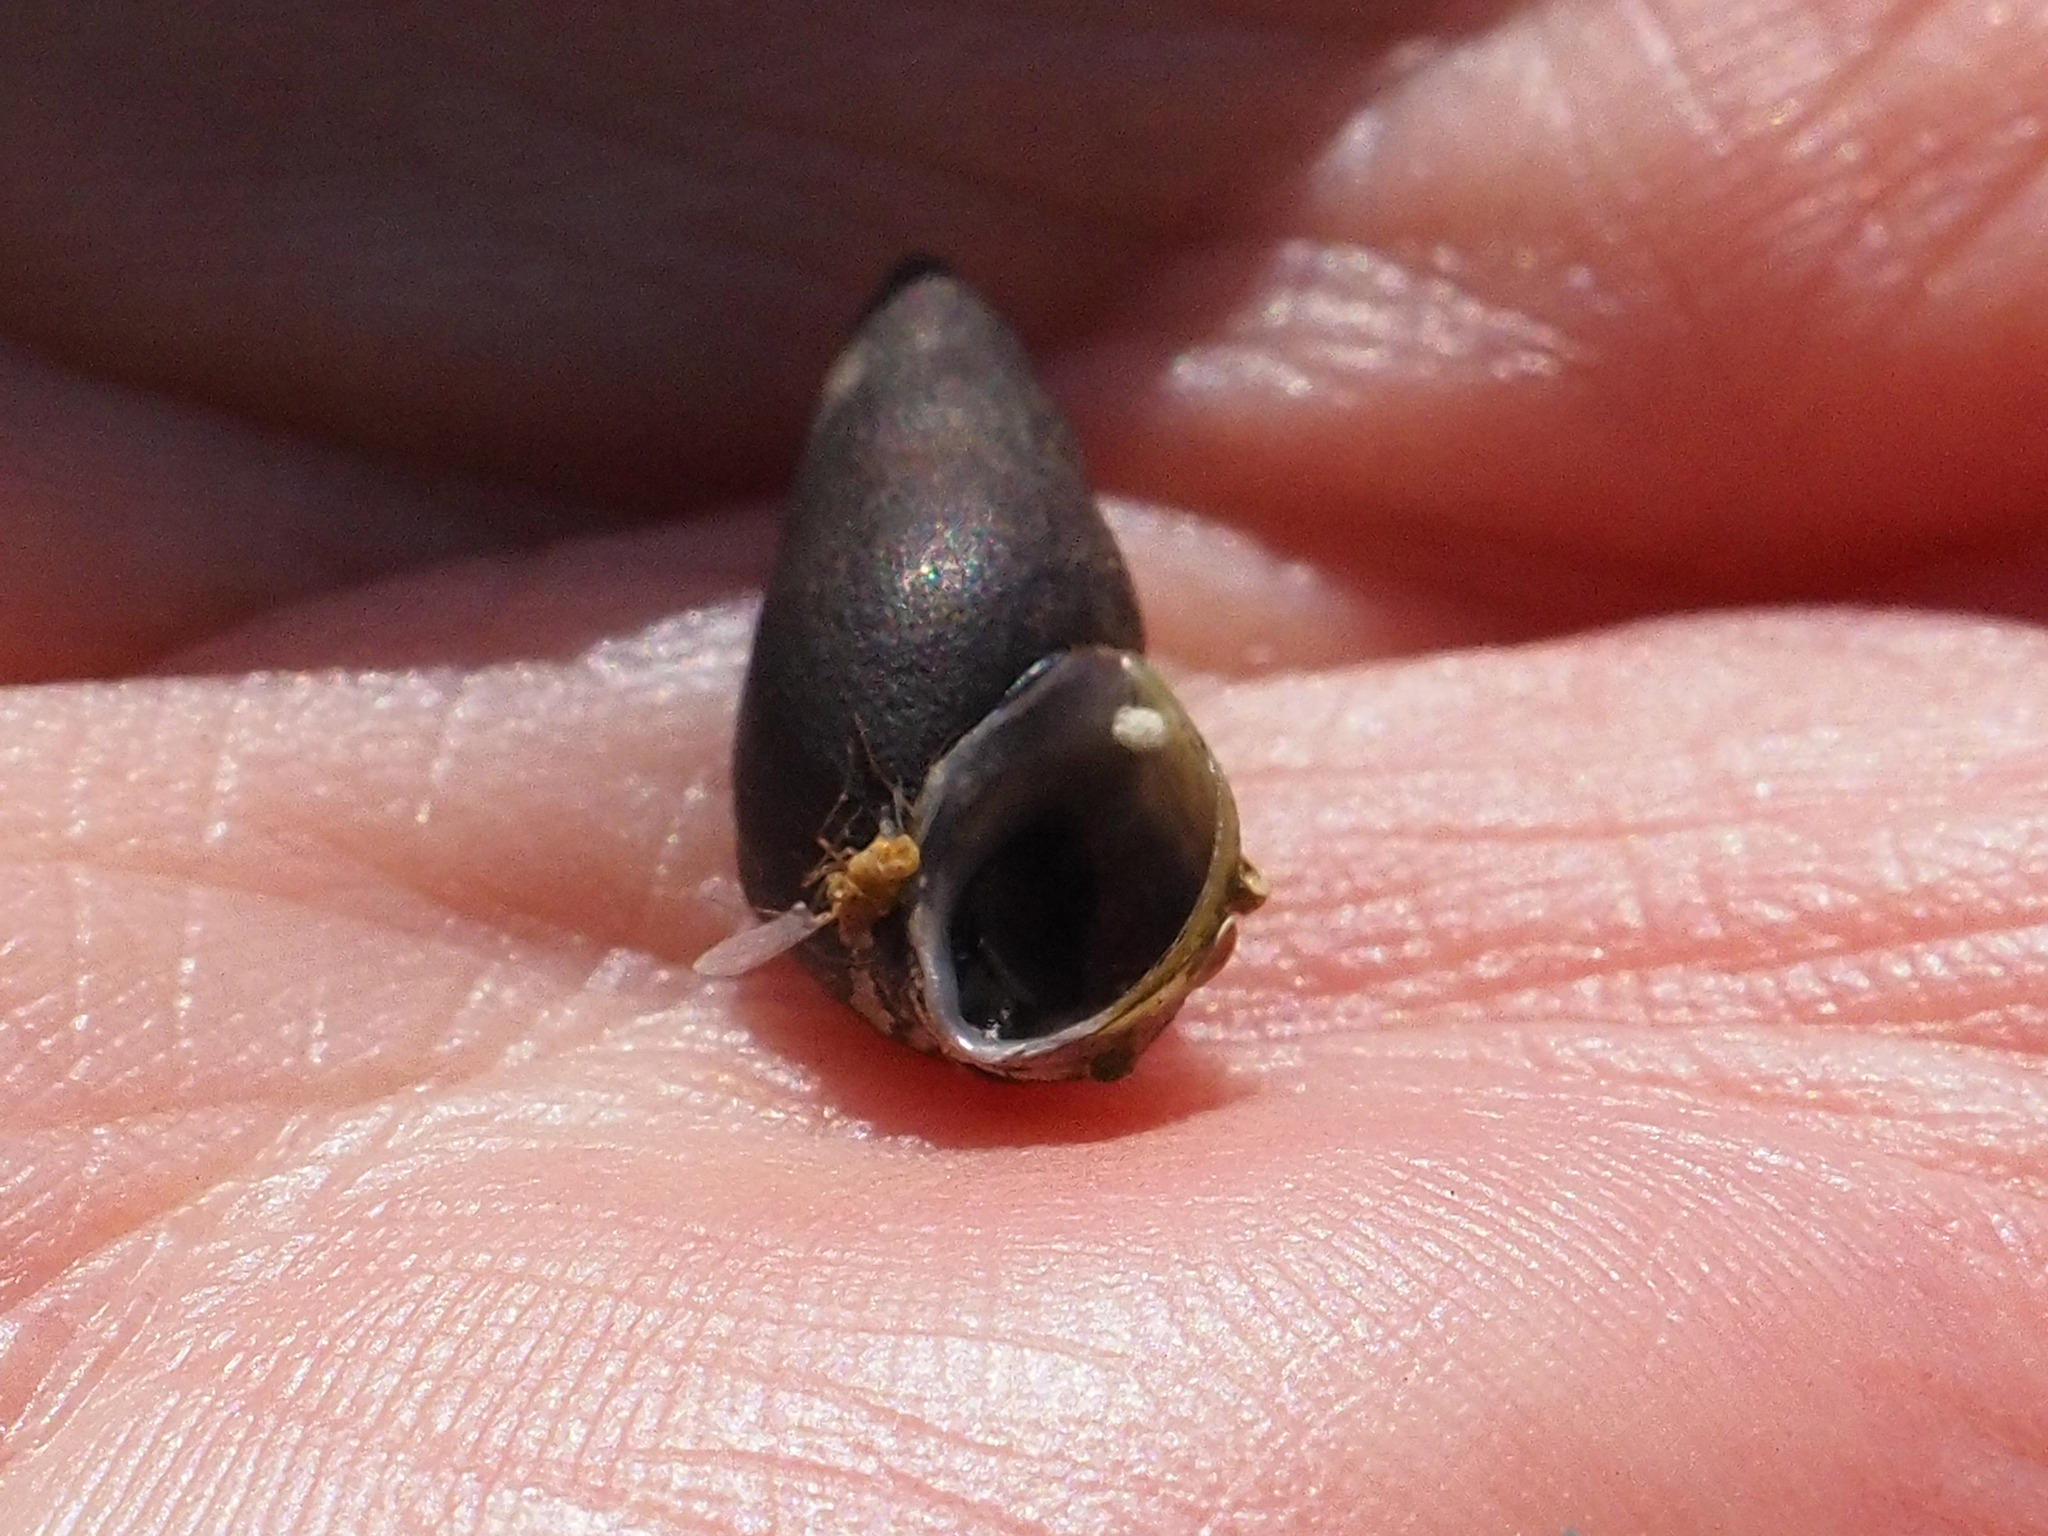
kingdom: Animalia
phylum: Mollusca
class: Gastropoda
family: Melanopsidae
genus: Esperiana
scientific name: Esperiana esperi
